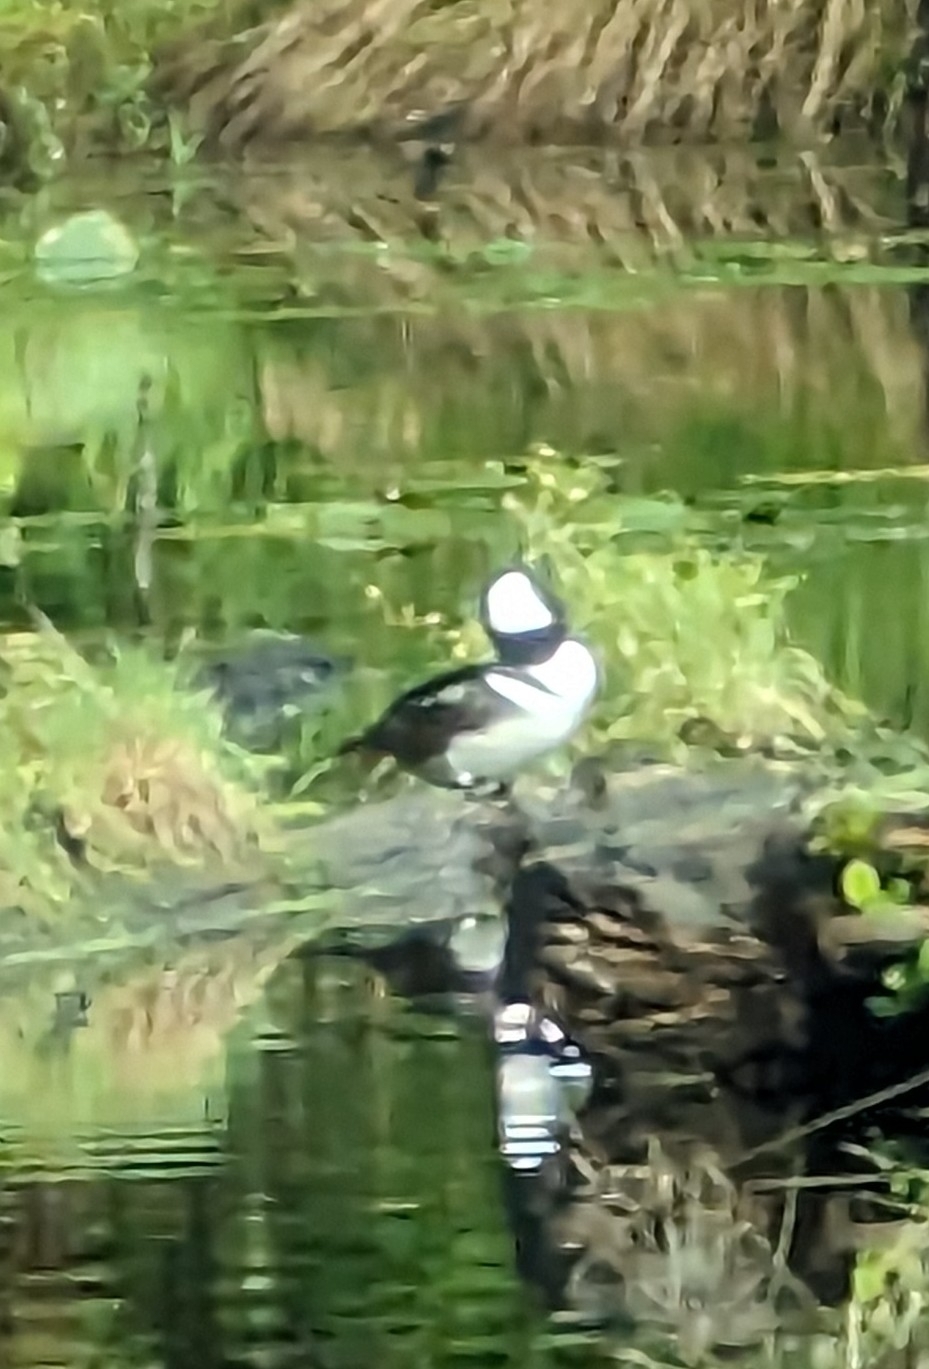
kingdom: Animalia
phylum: Chordata
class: Aves
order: Anseriformes
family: Anatidae
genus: Lophodytes
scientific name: Lophodytes cucullatus
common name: Hooded merganser
